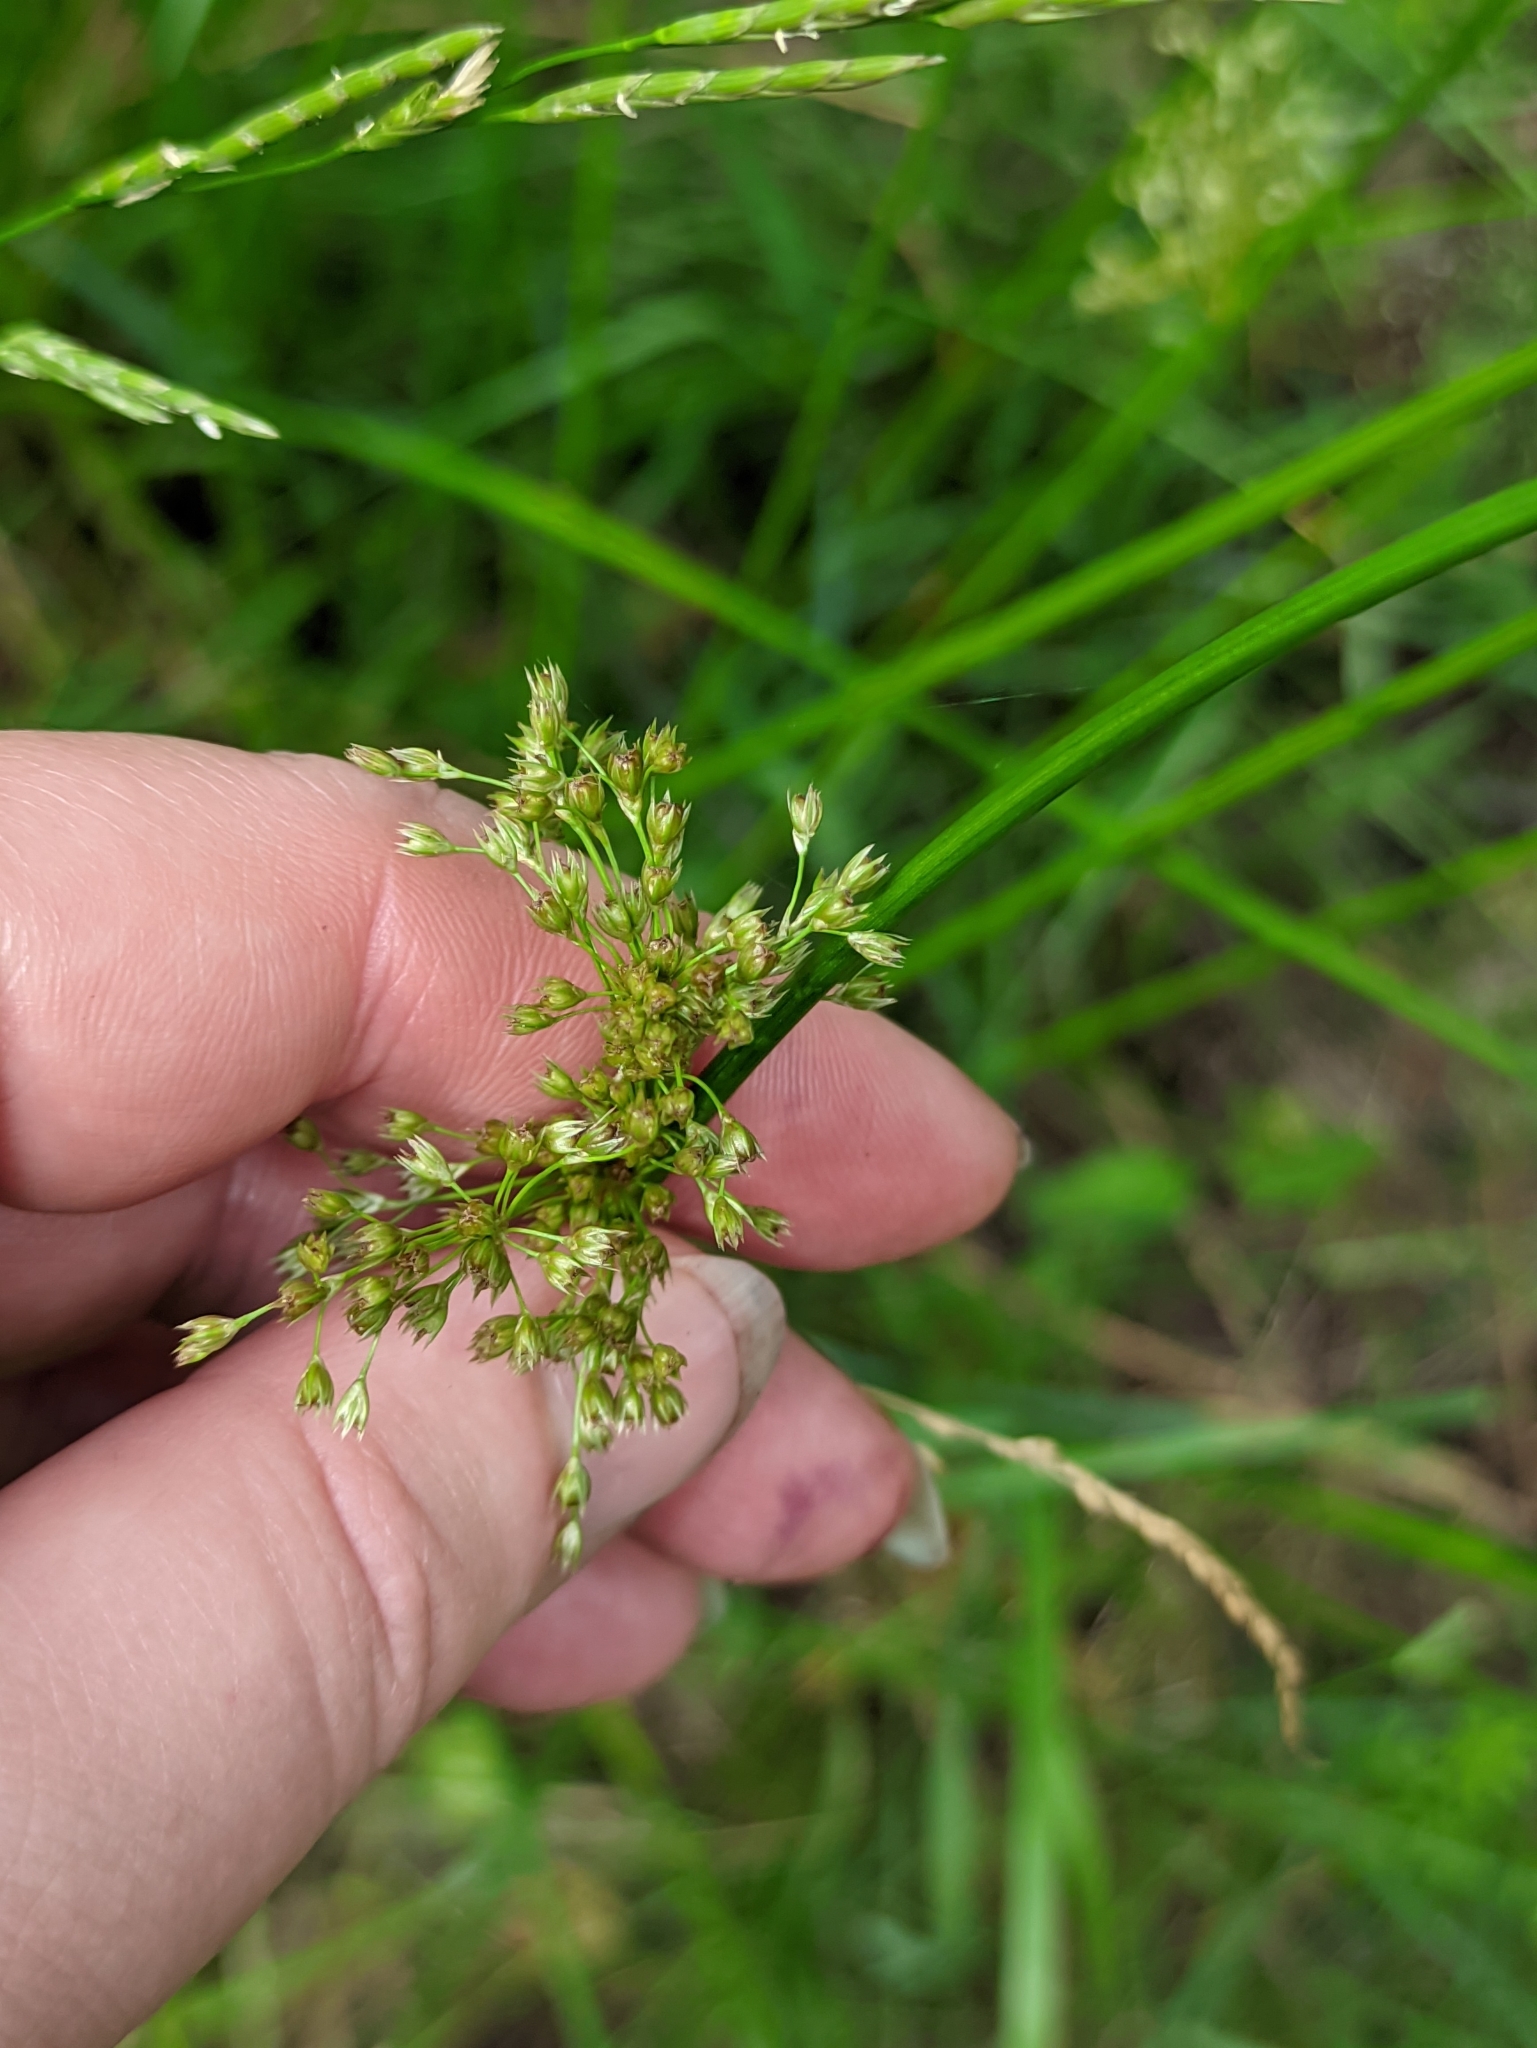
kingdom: Plantae
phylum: Tracheophyta
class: Liliopsida
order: Poales
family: Juncaceae
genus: Juncus
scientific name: Juncus effusus
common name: Soft rush
